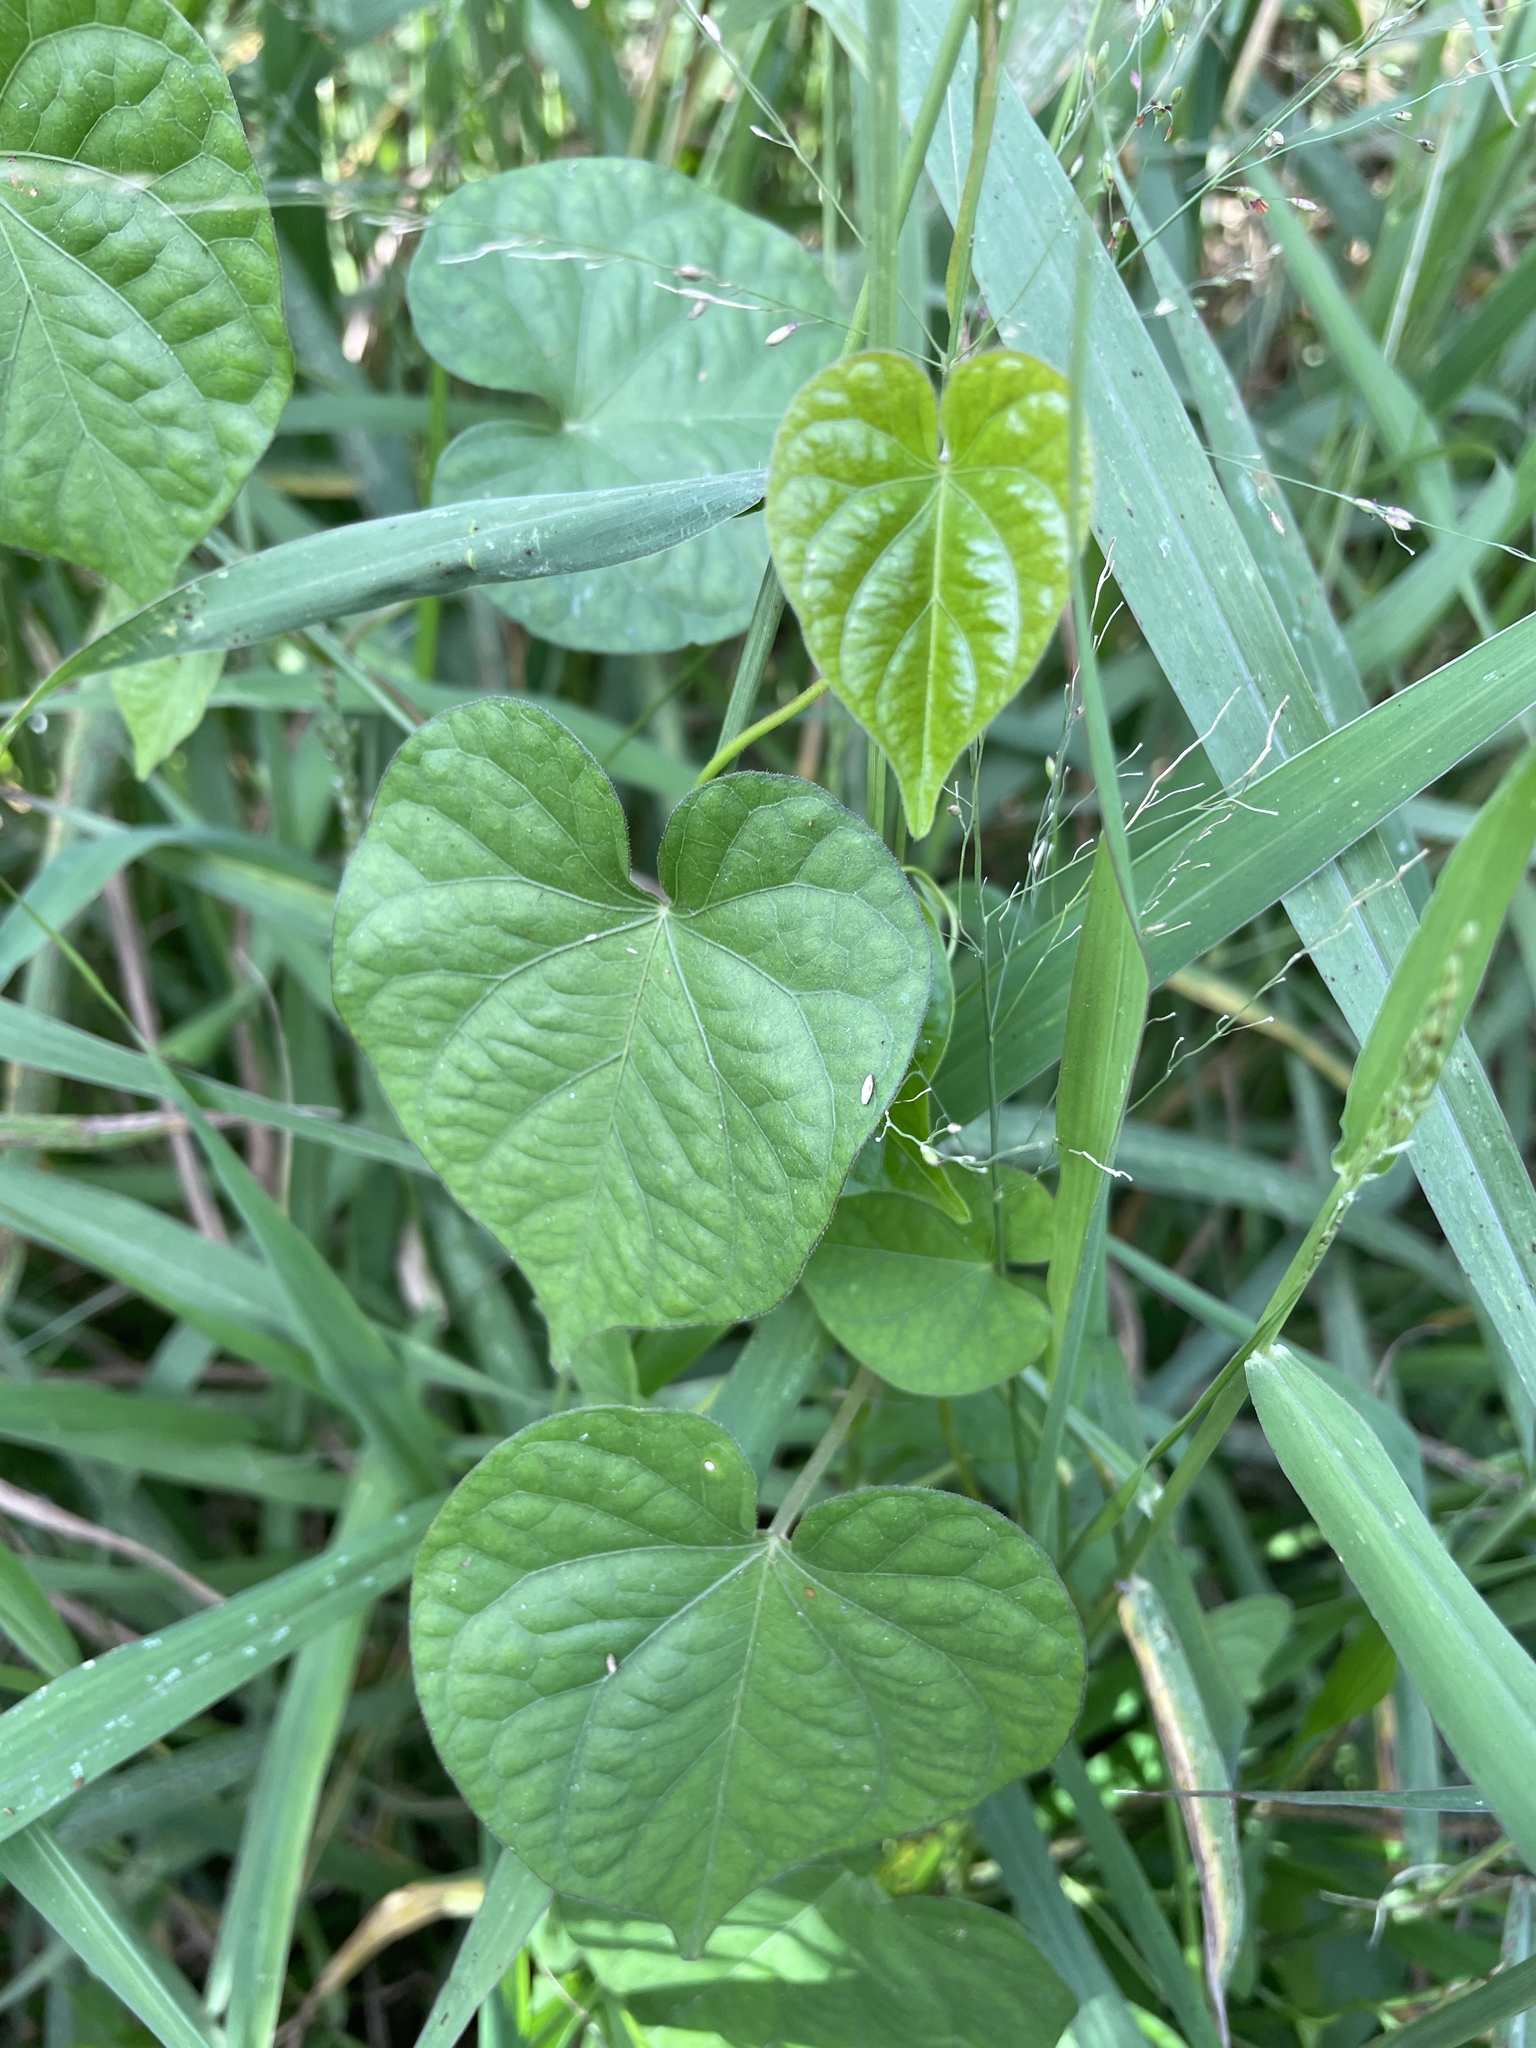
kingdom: Plantae
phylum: Tracheophyta
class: Magnoliopsida
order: Solanales
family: Convolvulaceae
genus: Ipomoea
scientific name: Ipomoea obscura
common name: Obscure morning-glory
